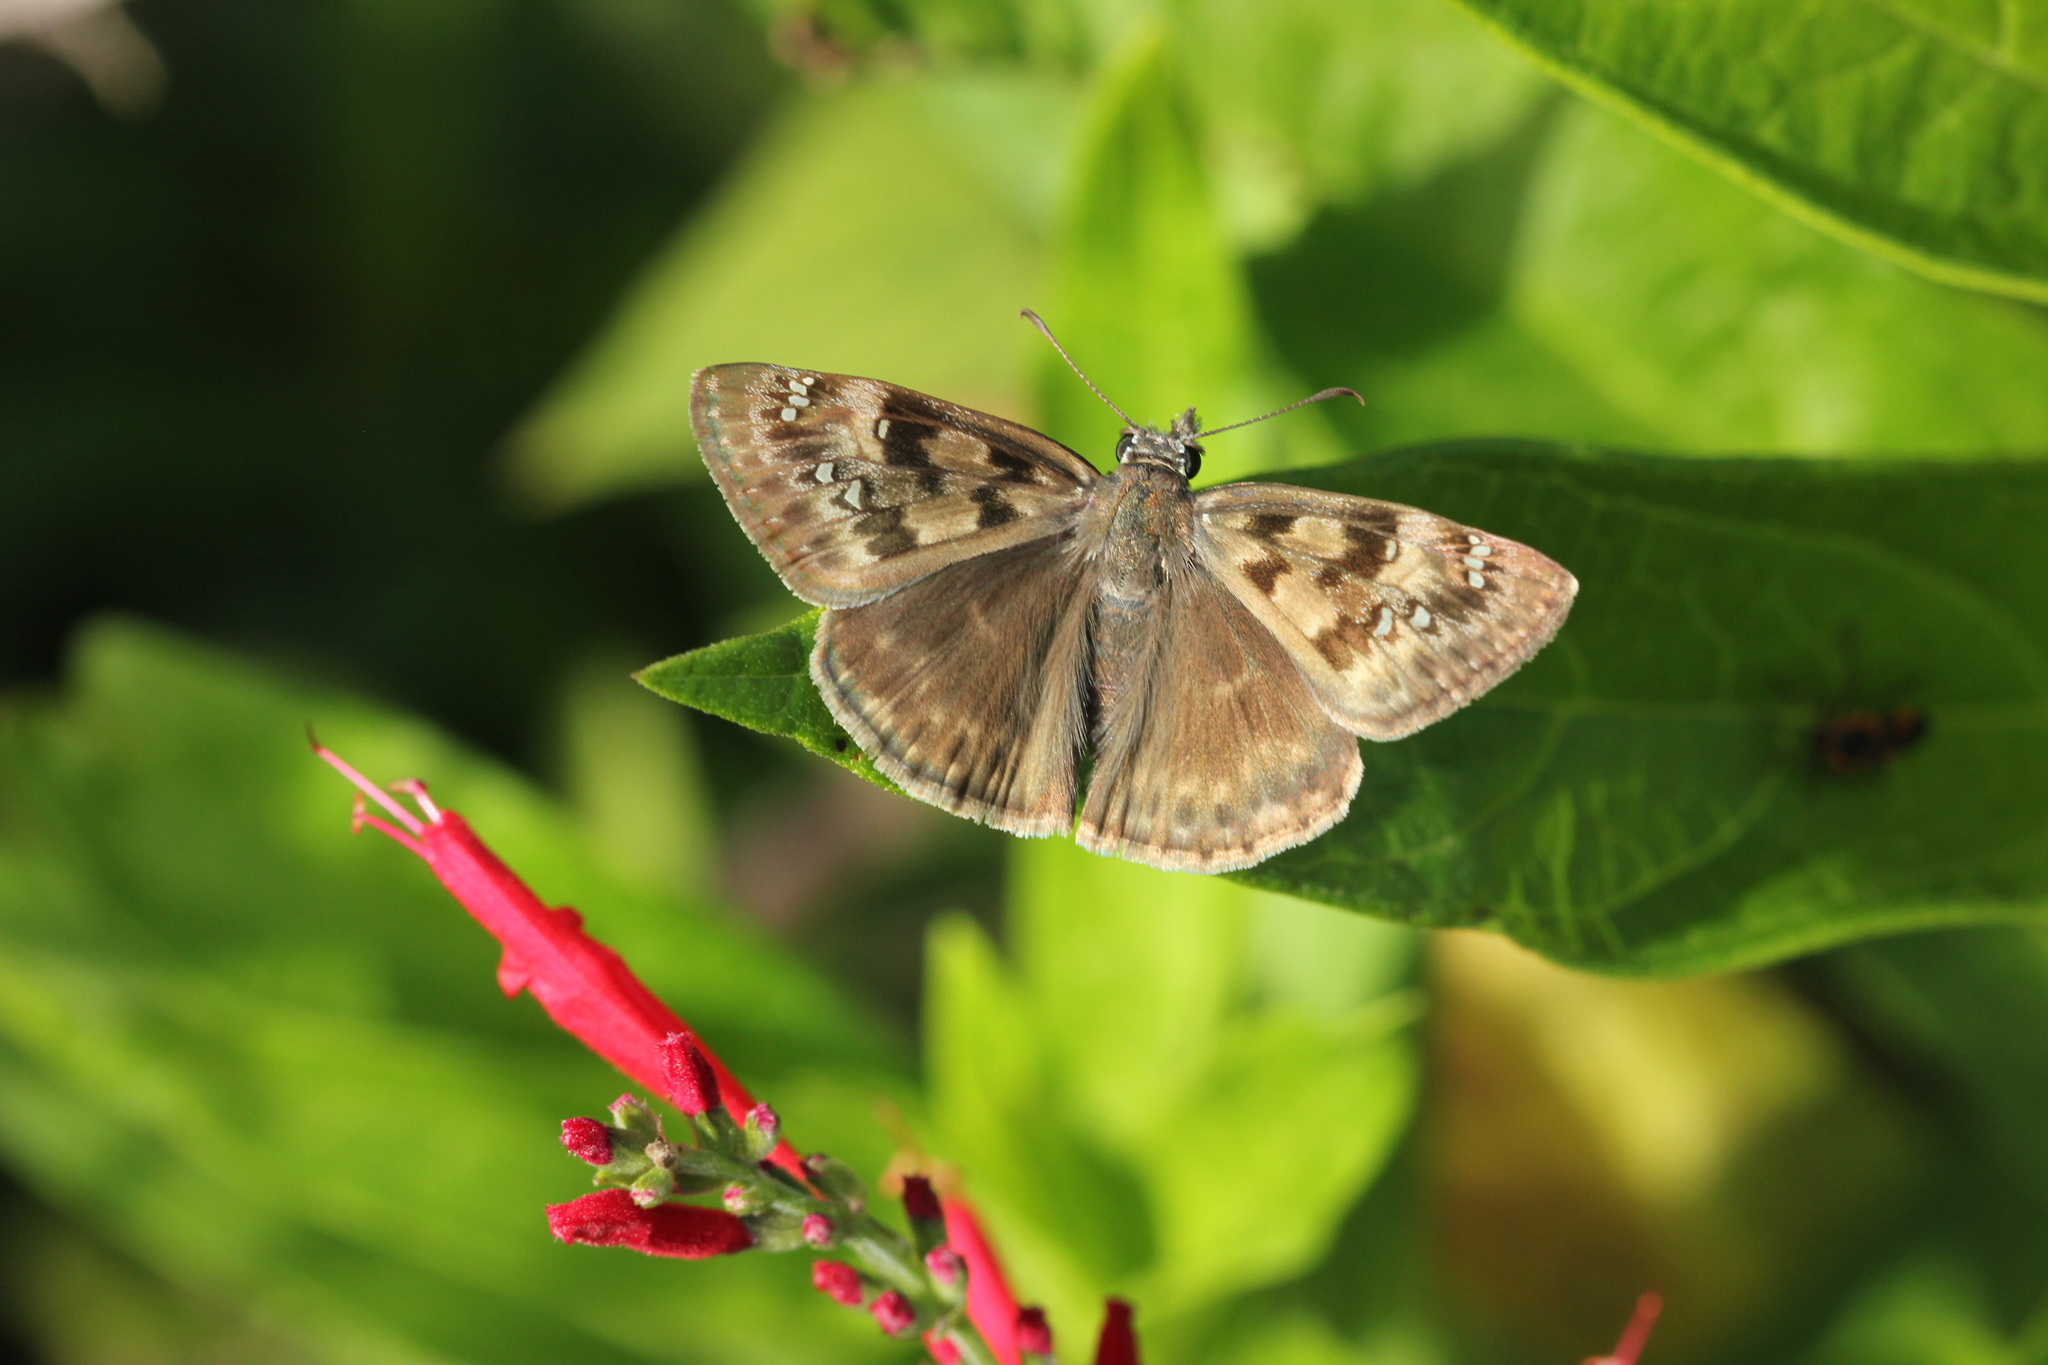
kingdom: Animalia
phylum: Arthropoda
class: Insecta
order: Lepidoptera
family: Hesperiidae
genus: Erynnis
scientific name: Erynnis horatius
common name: Horace's duskywing
